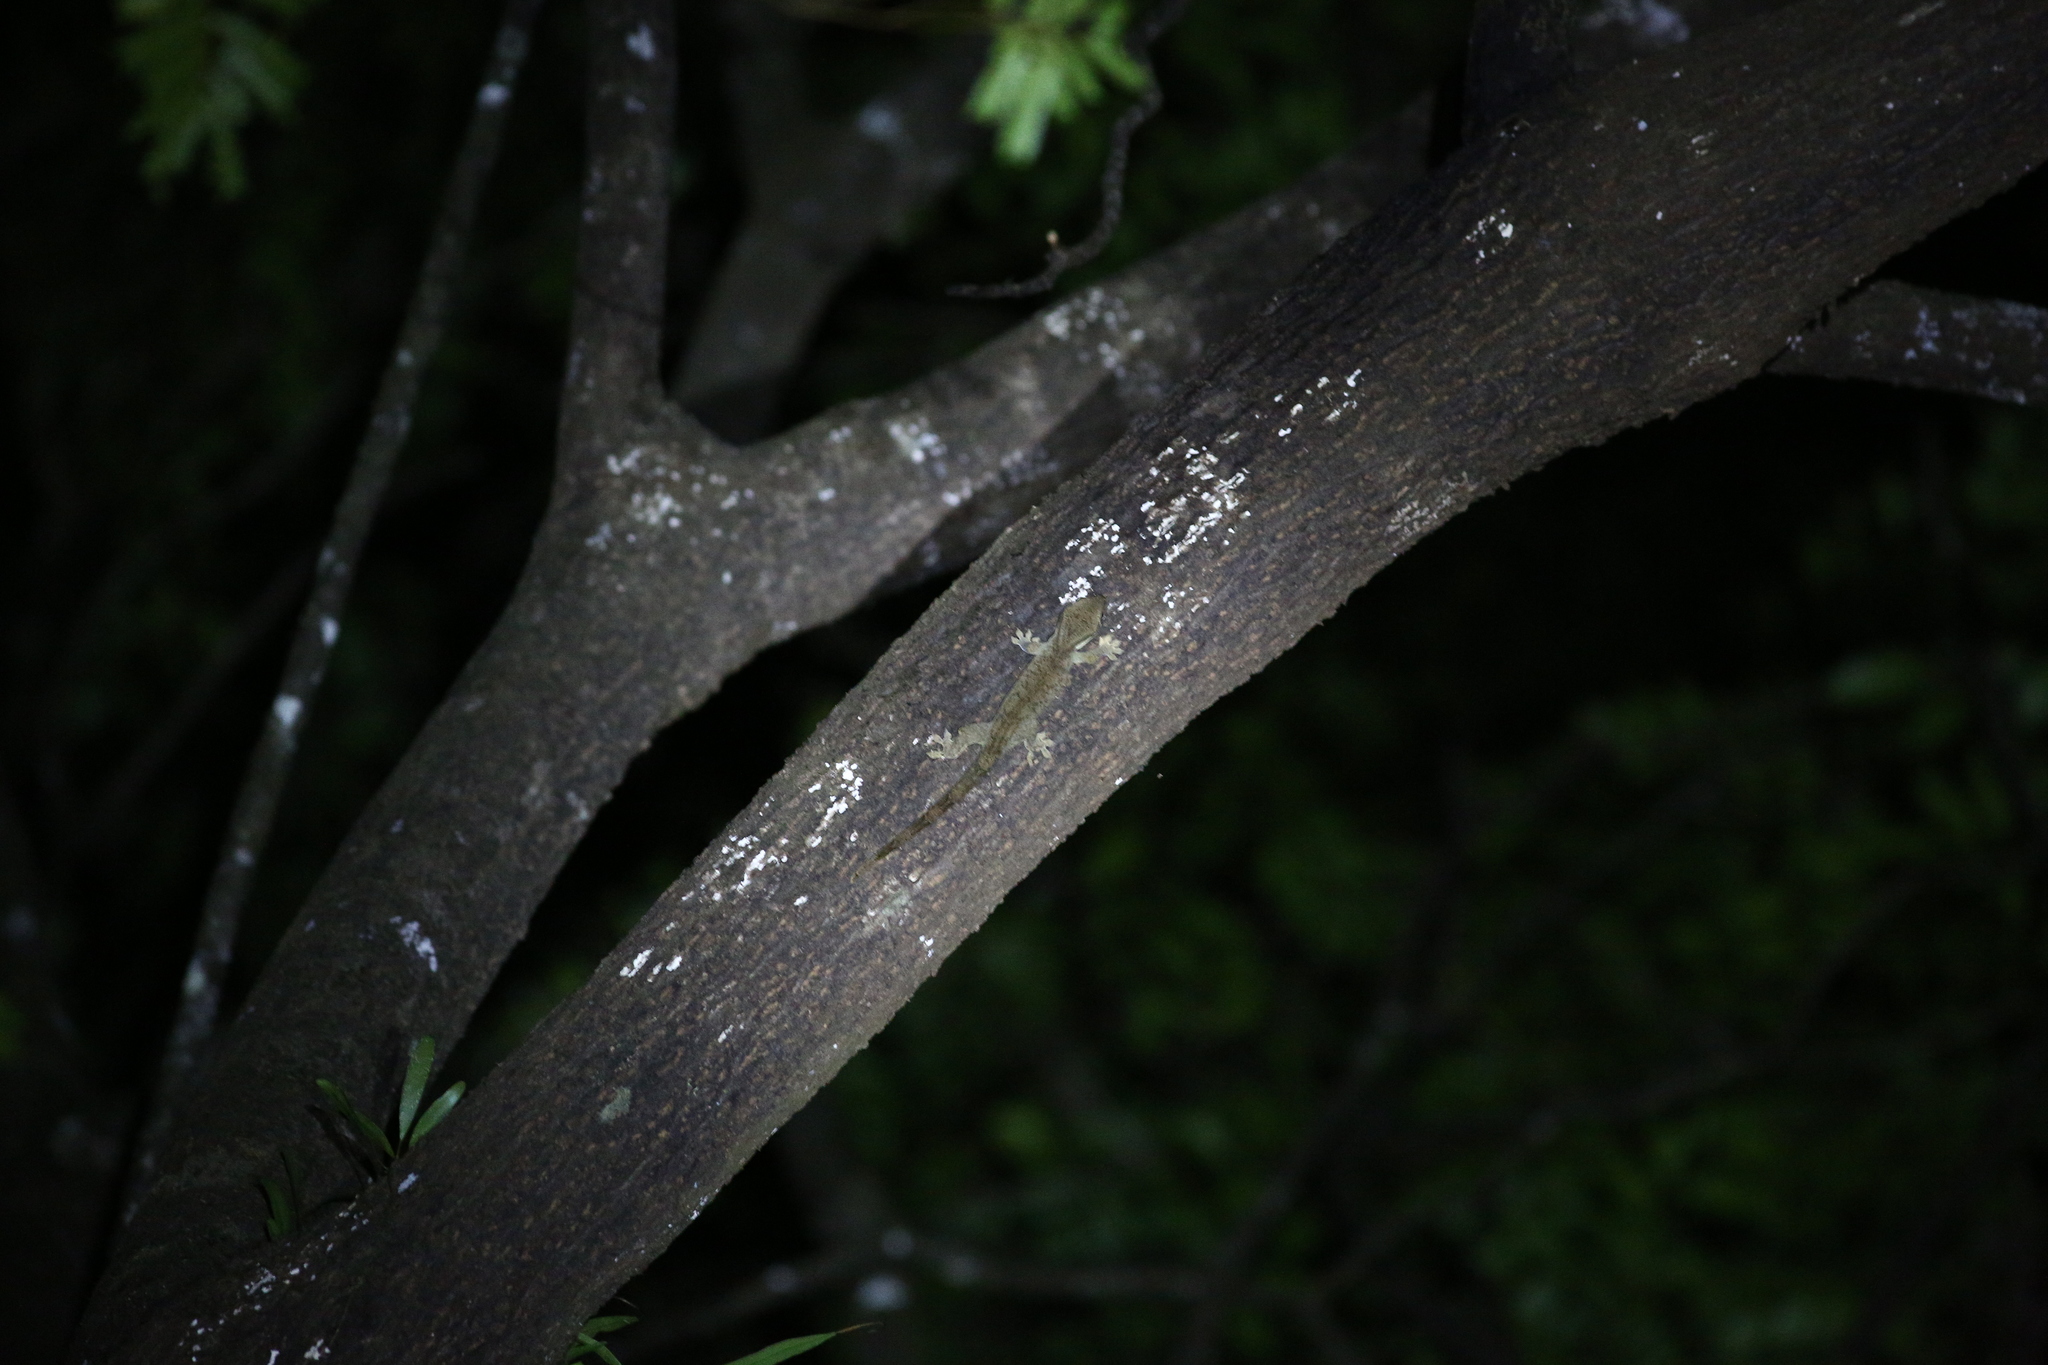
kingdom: Animalia
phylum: Chordata
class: Squamata
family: Diplodactylidae
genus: Correlophus
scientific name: Correlophus sarasinorum
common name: Roux's giant gecko
